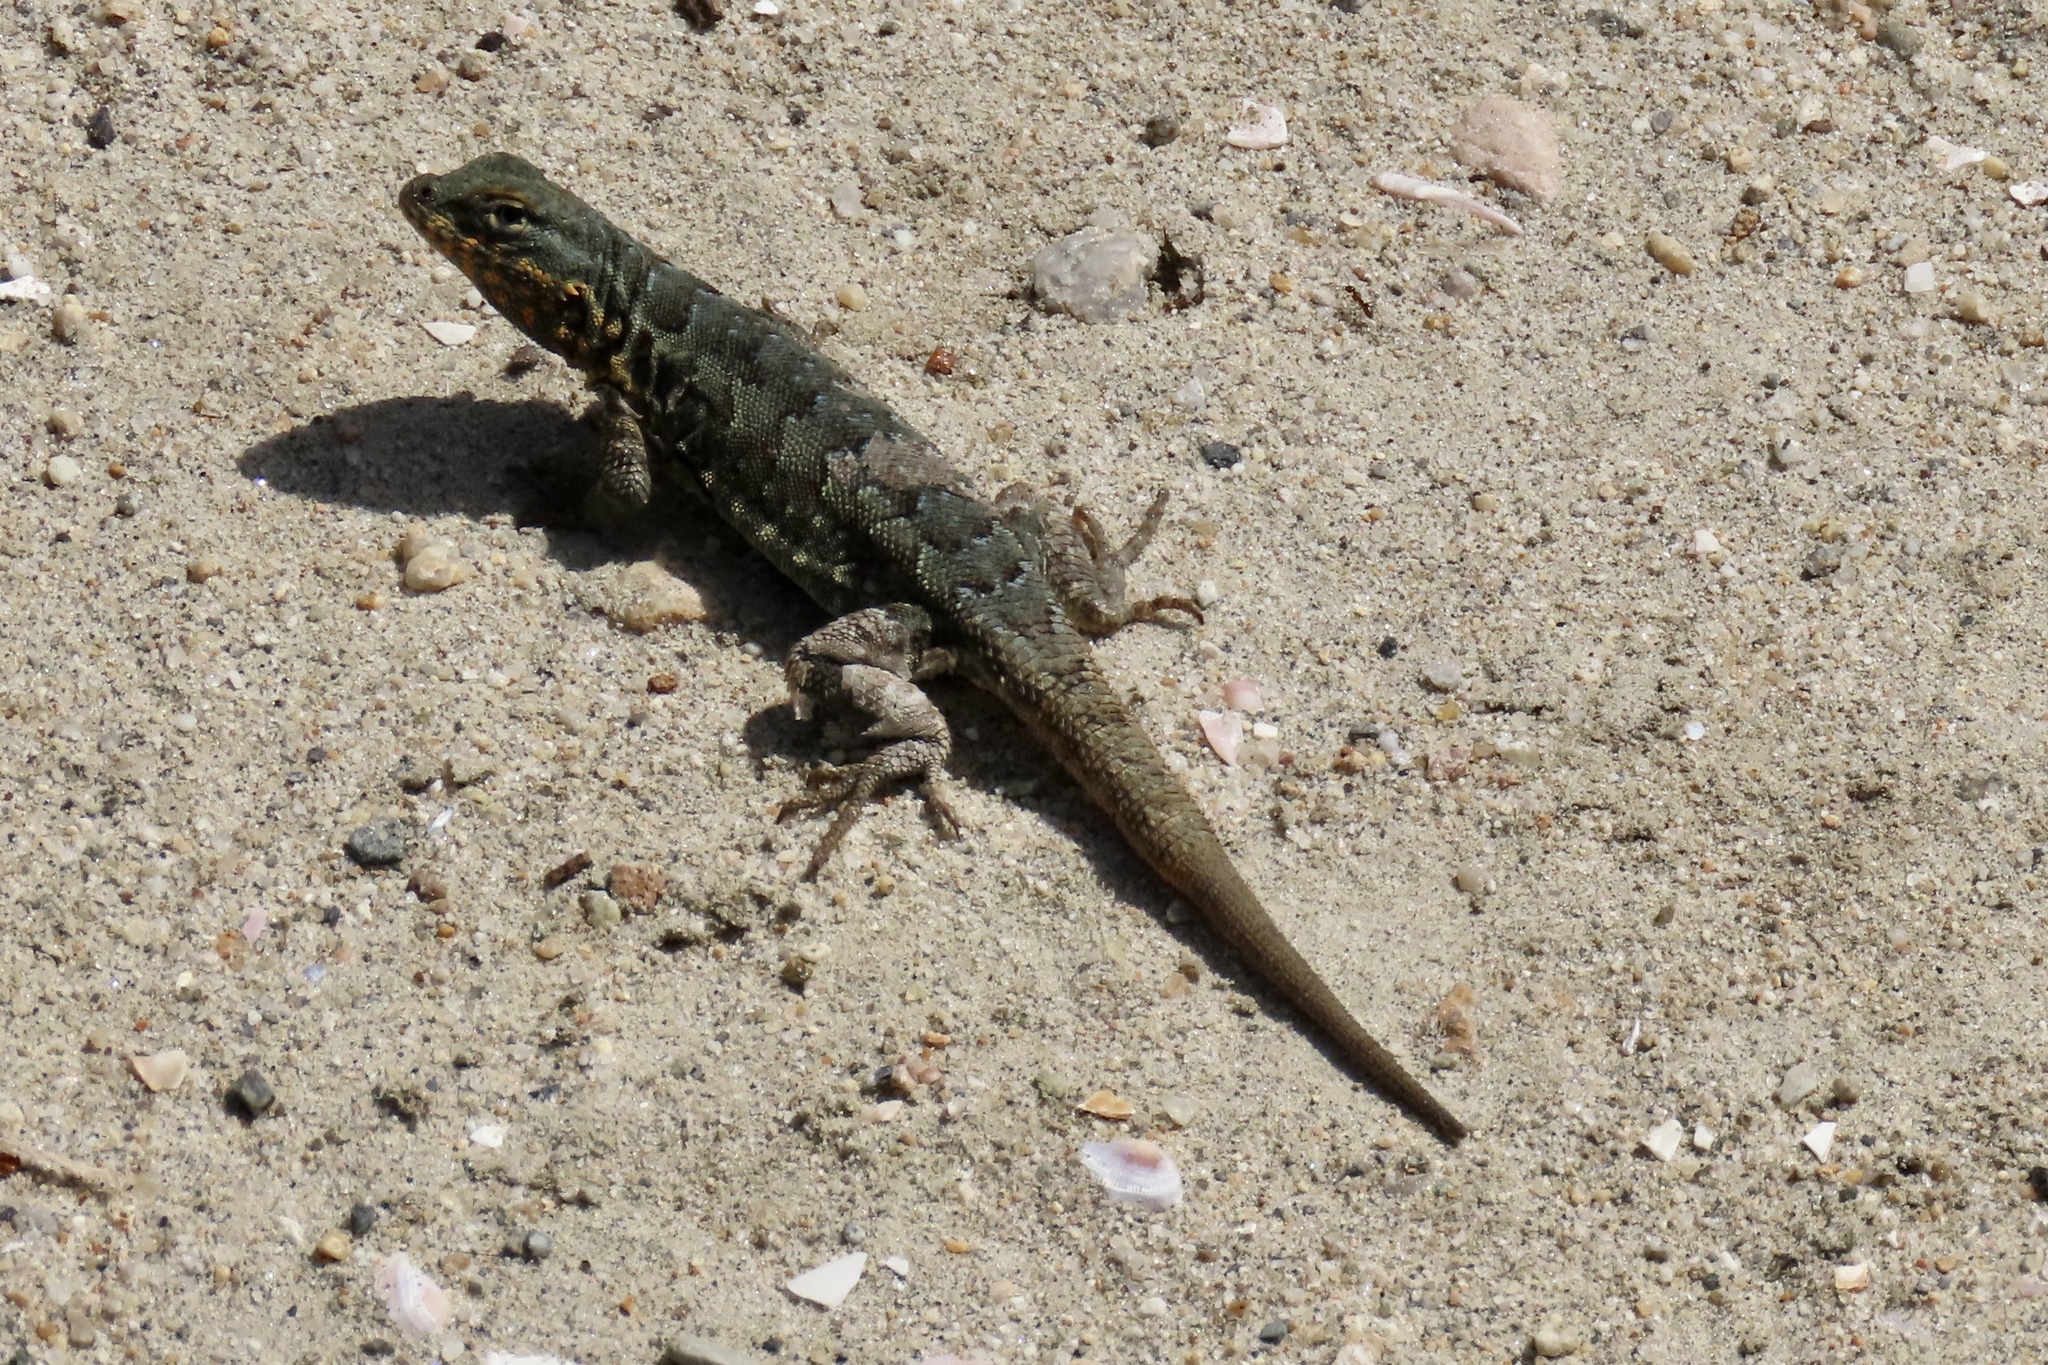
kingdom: Animalia
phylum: Chordata
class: Squamata
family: Phrynosomatidae
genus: Uta
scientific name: Uta stansburiana
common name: Side-blotched lizard
